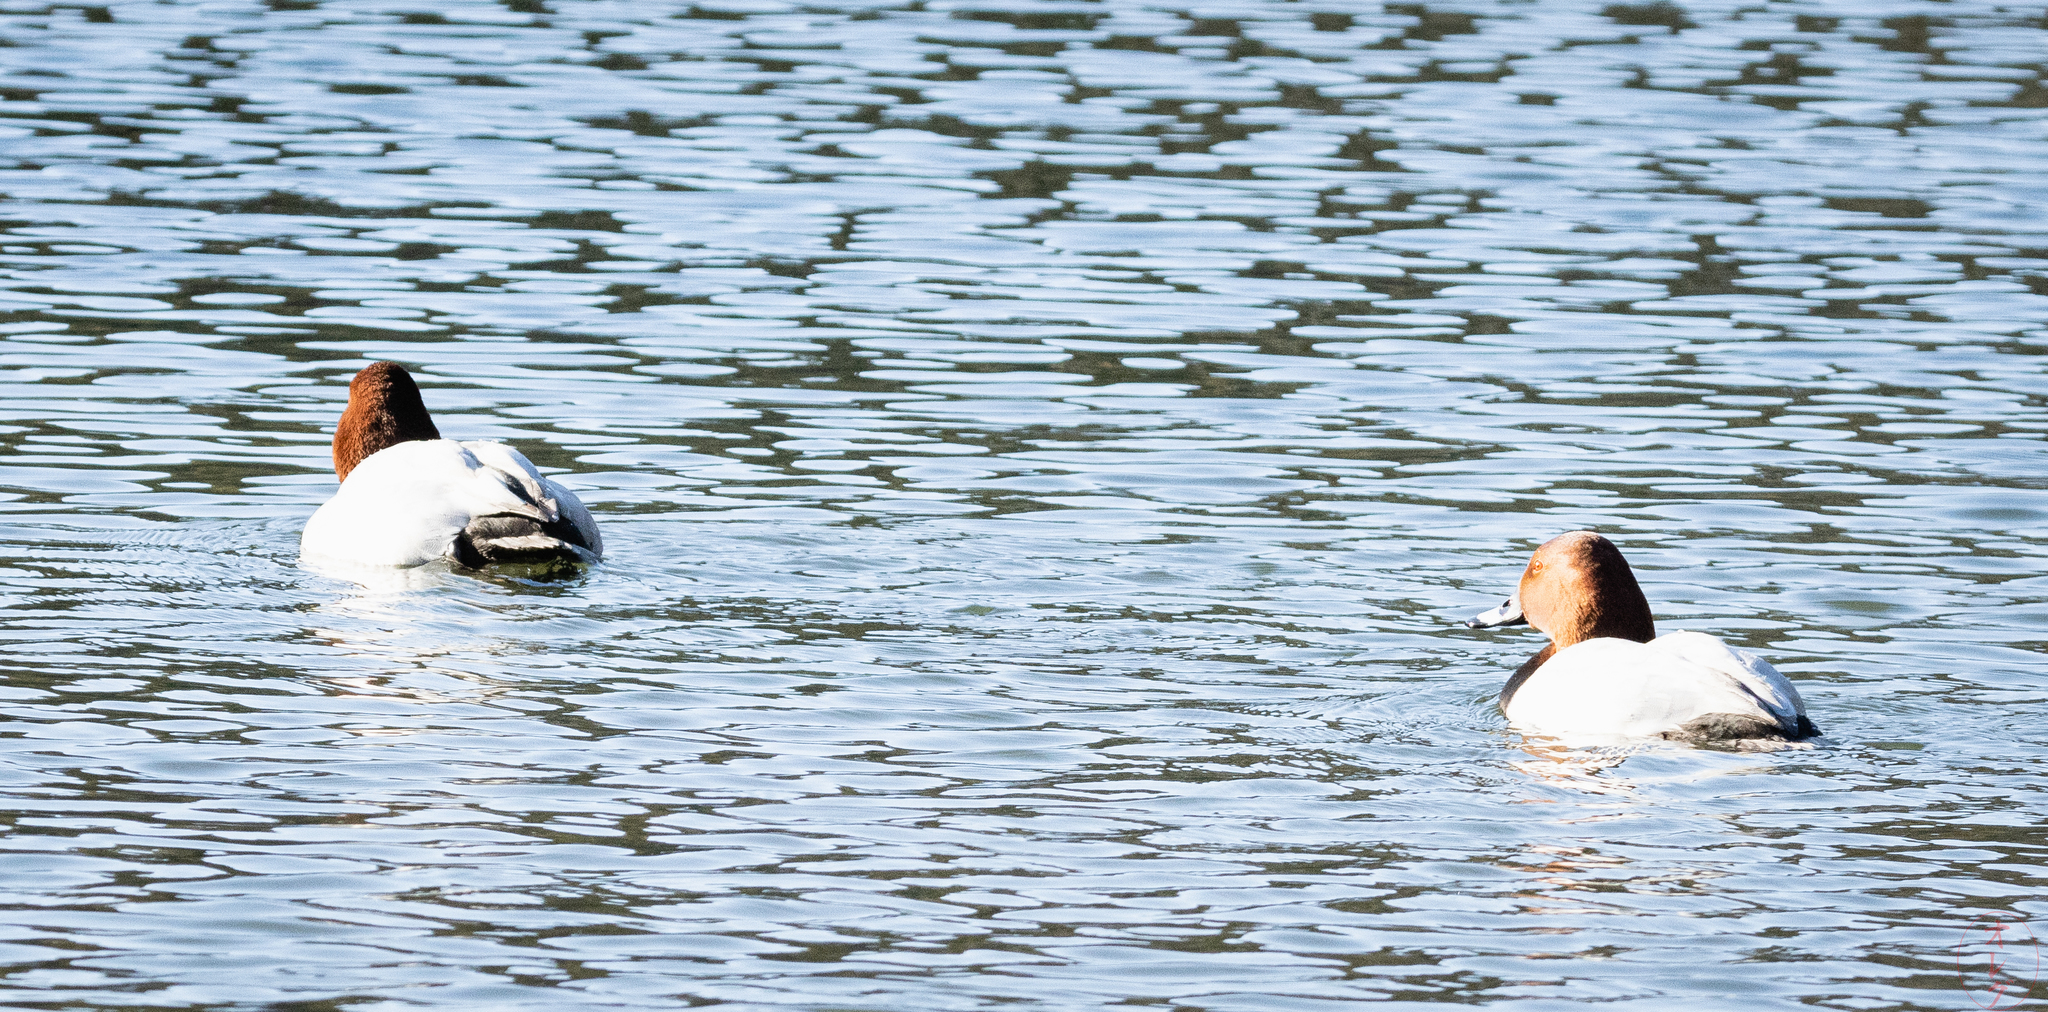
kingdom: Animalia
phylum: Chordata
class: Aves
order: Anseriformes
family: Anatidae
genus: Aythya
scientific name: Aythya ferina
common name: Common pochard
